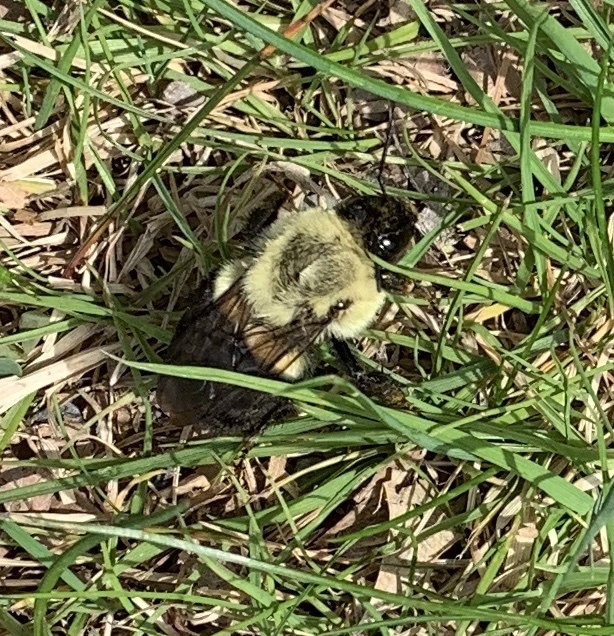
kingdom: Animalia
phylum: Arthropoda
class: Insecta
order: Hymenoptera
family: Apidae
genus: Bombus
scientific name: Bombus impatiens
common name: Common eastern bumble bee
